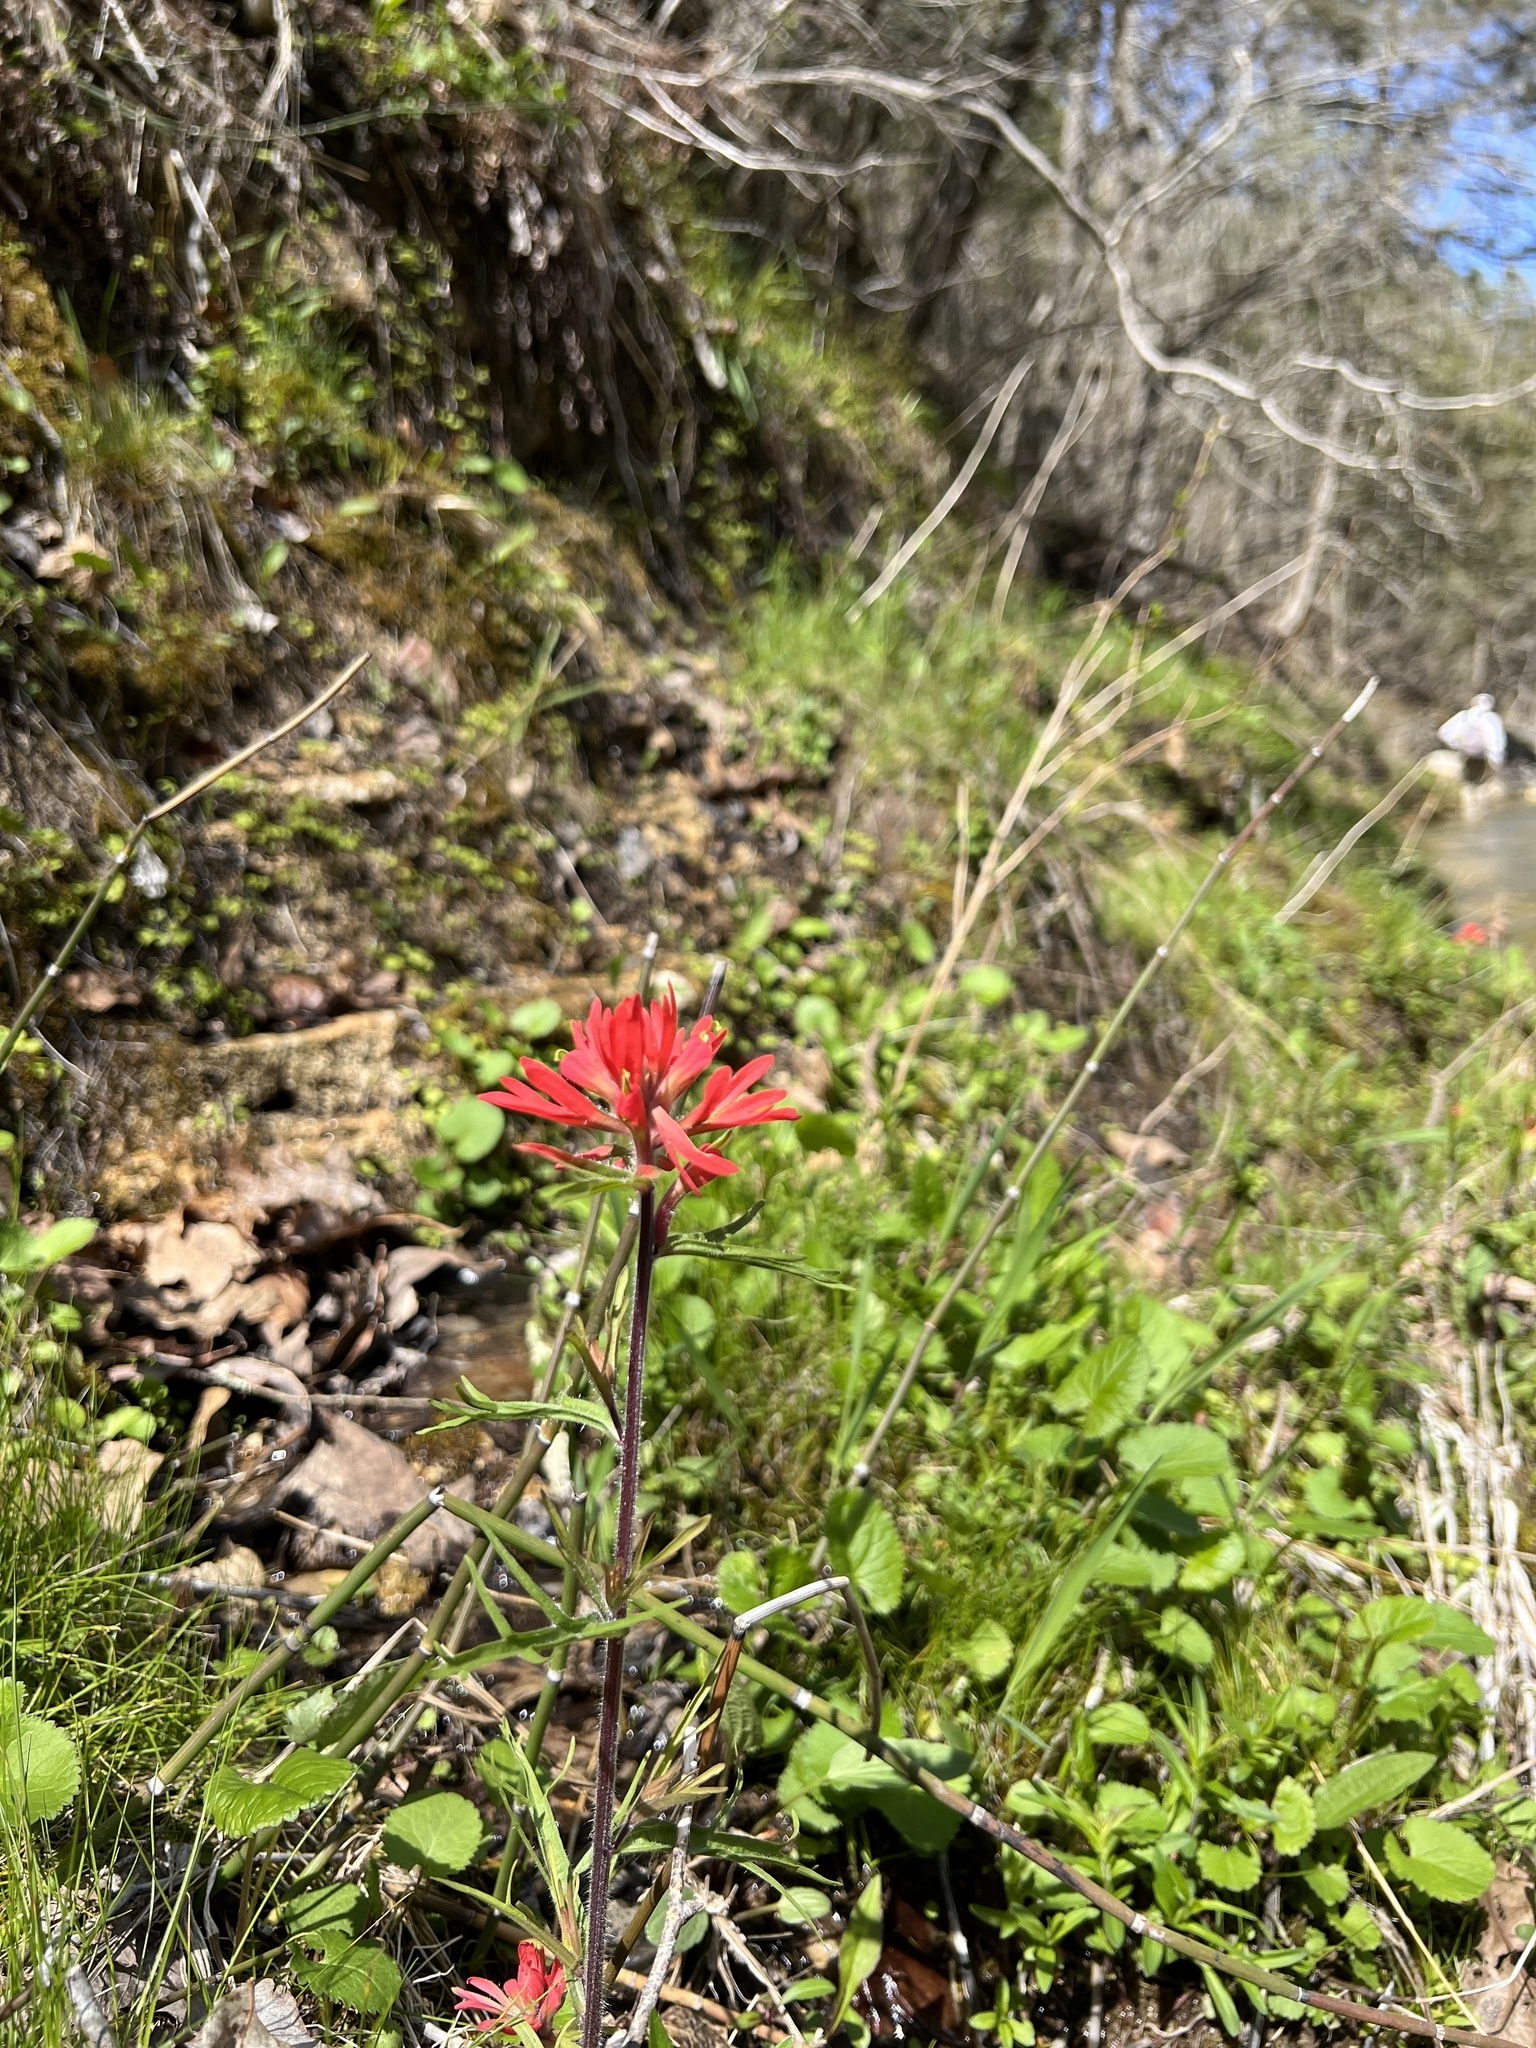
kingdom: Plantae
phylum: Tracheophyta
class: Magnoliopsida
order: Lamiales
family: Orobanchaceae
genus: Castilleja
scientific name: Castilleja coccinea
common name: Scarlet paintbrush
